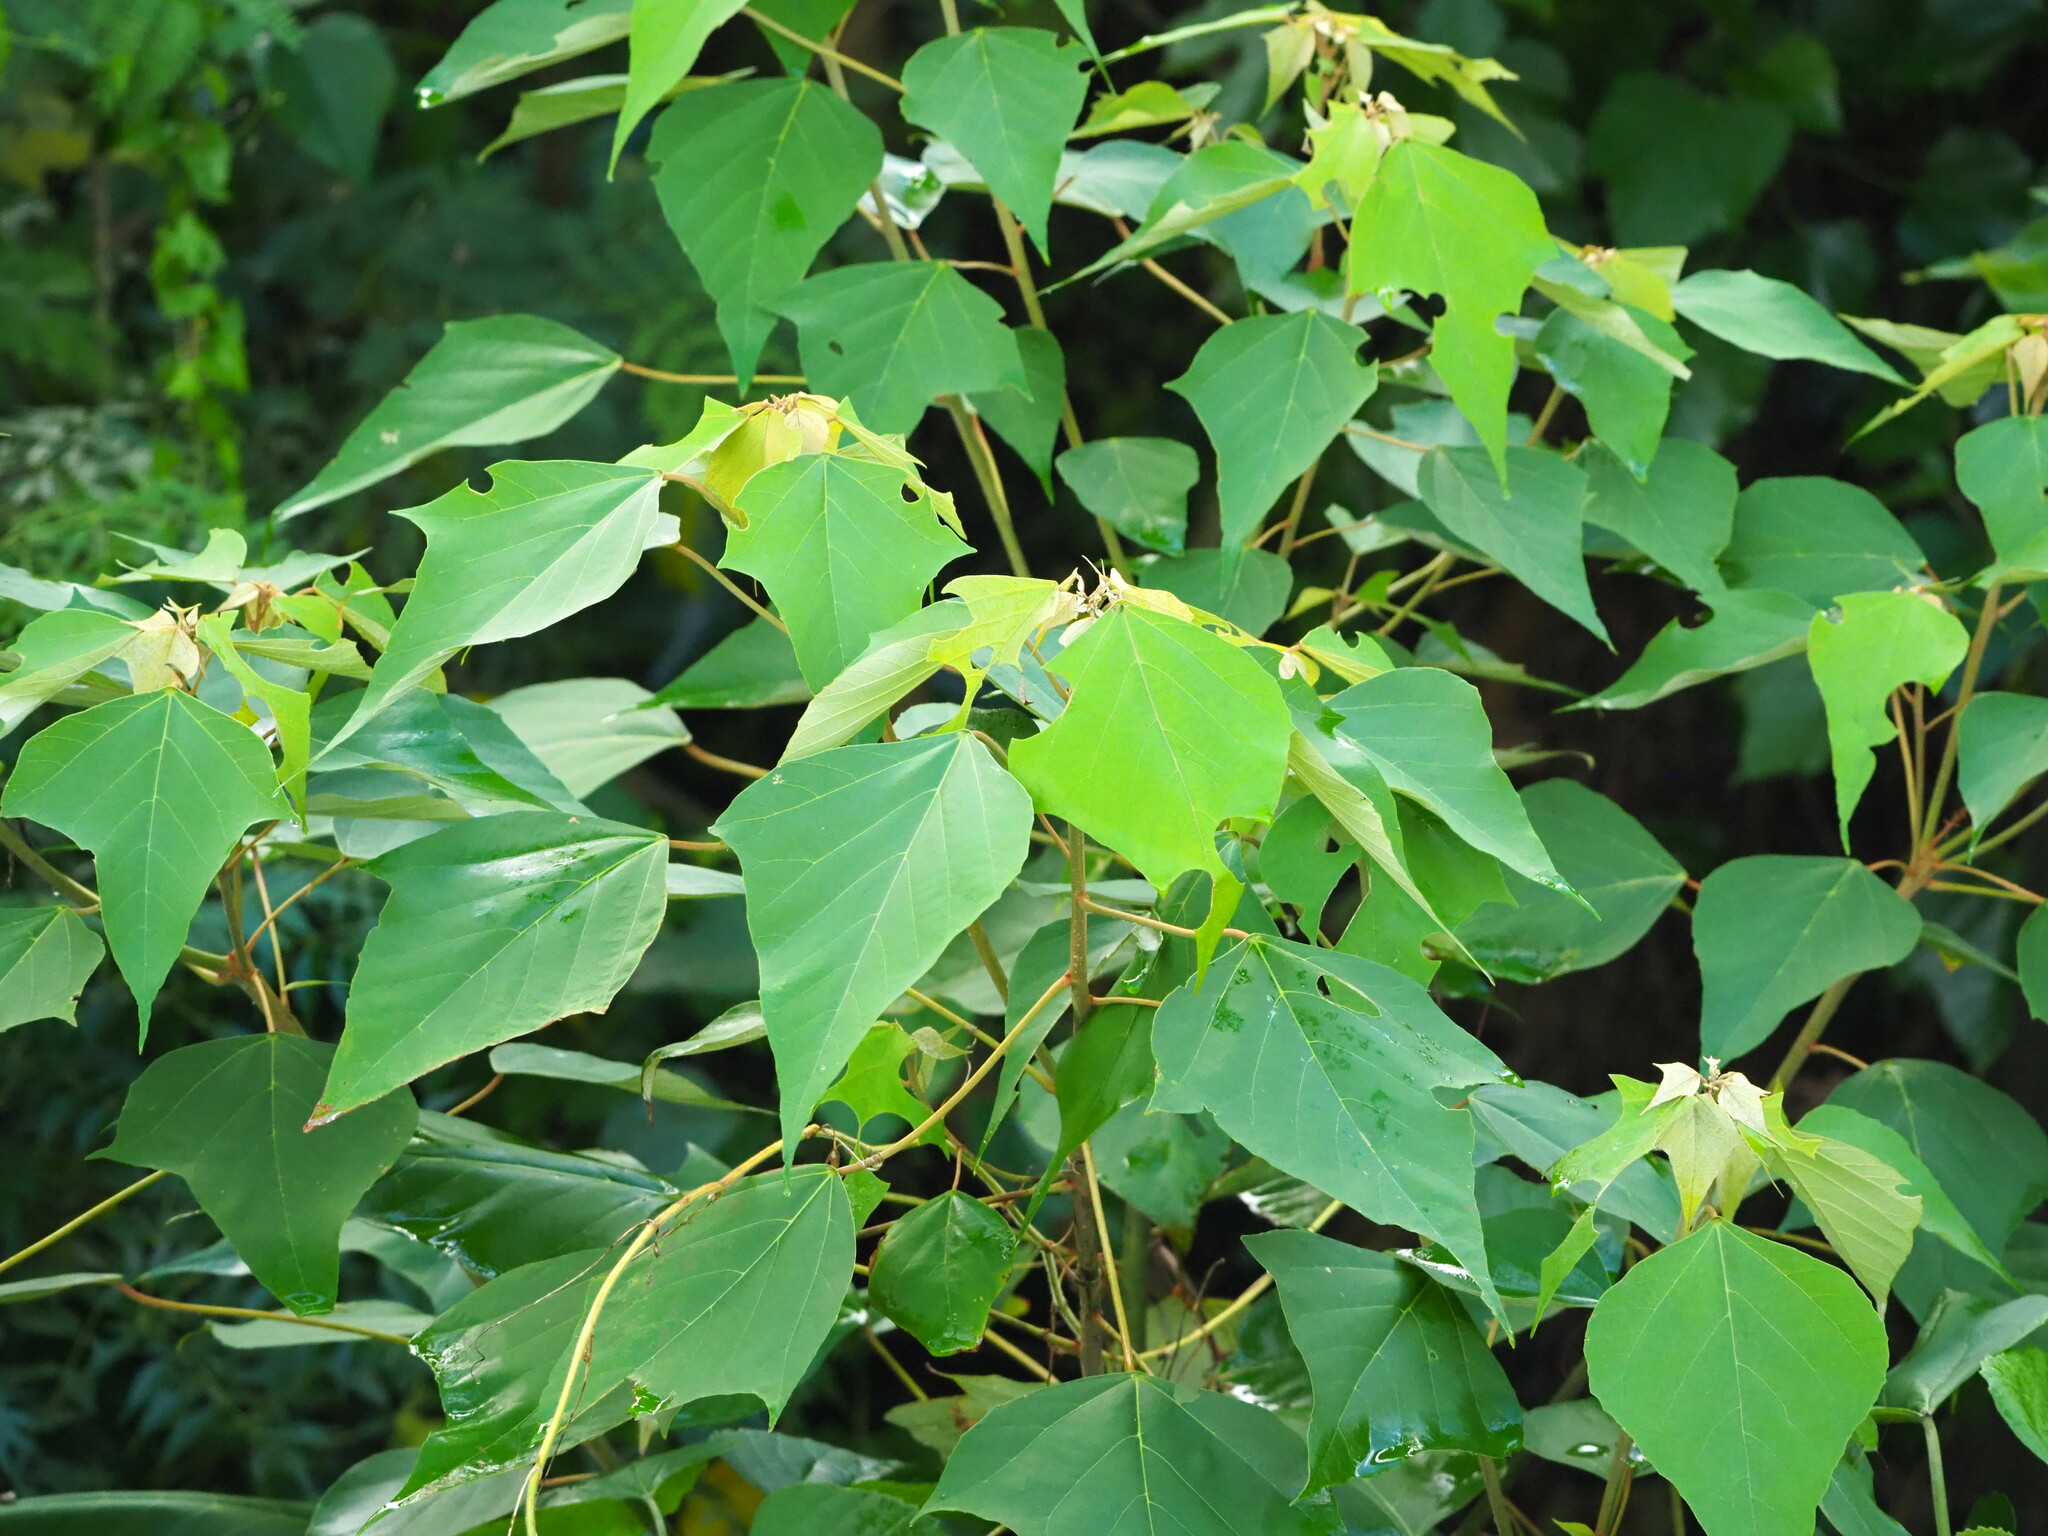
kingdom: Plantae
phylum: Tracheophyta
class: Magnoliopsida
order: Malpighiales
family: Euphorbiaceae
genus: Mallotus
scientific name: Mallotus paniculatus
